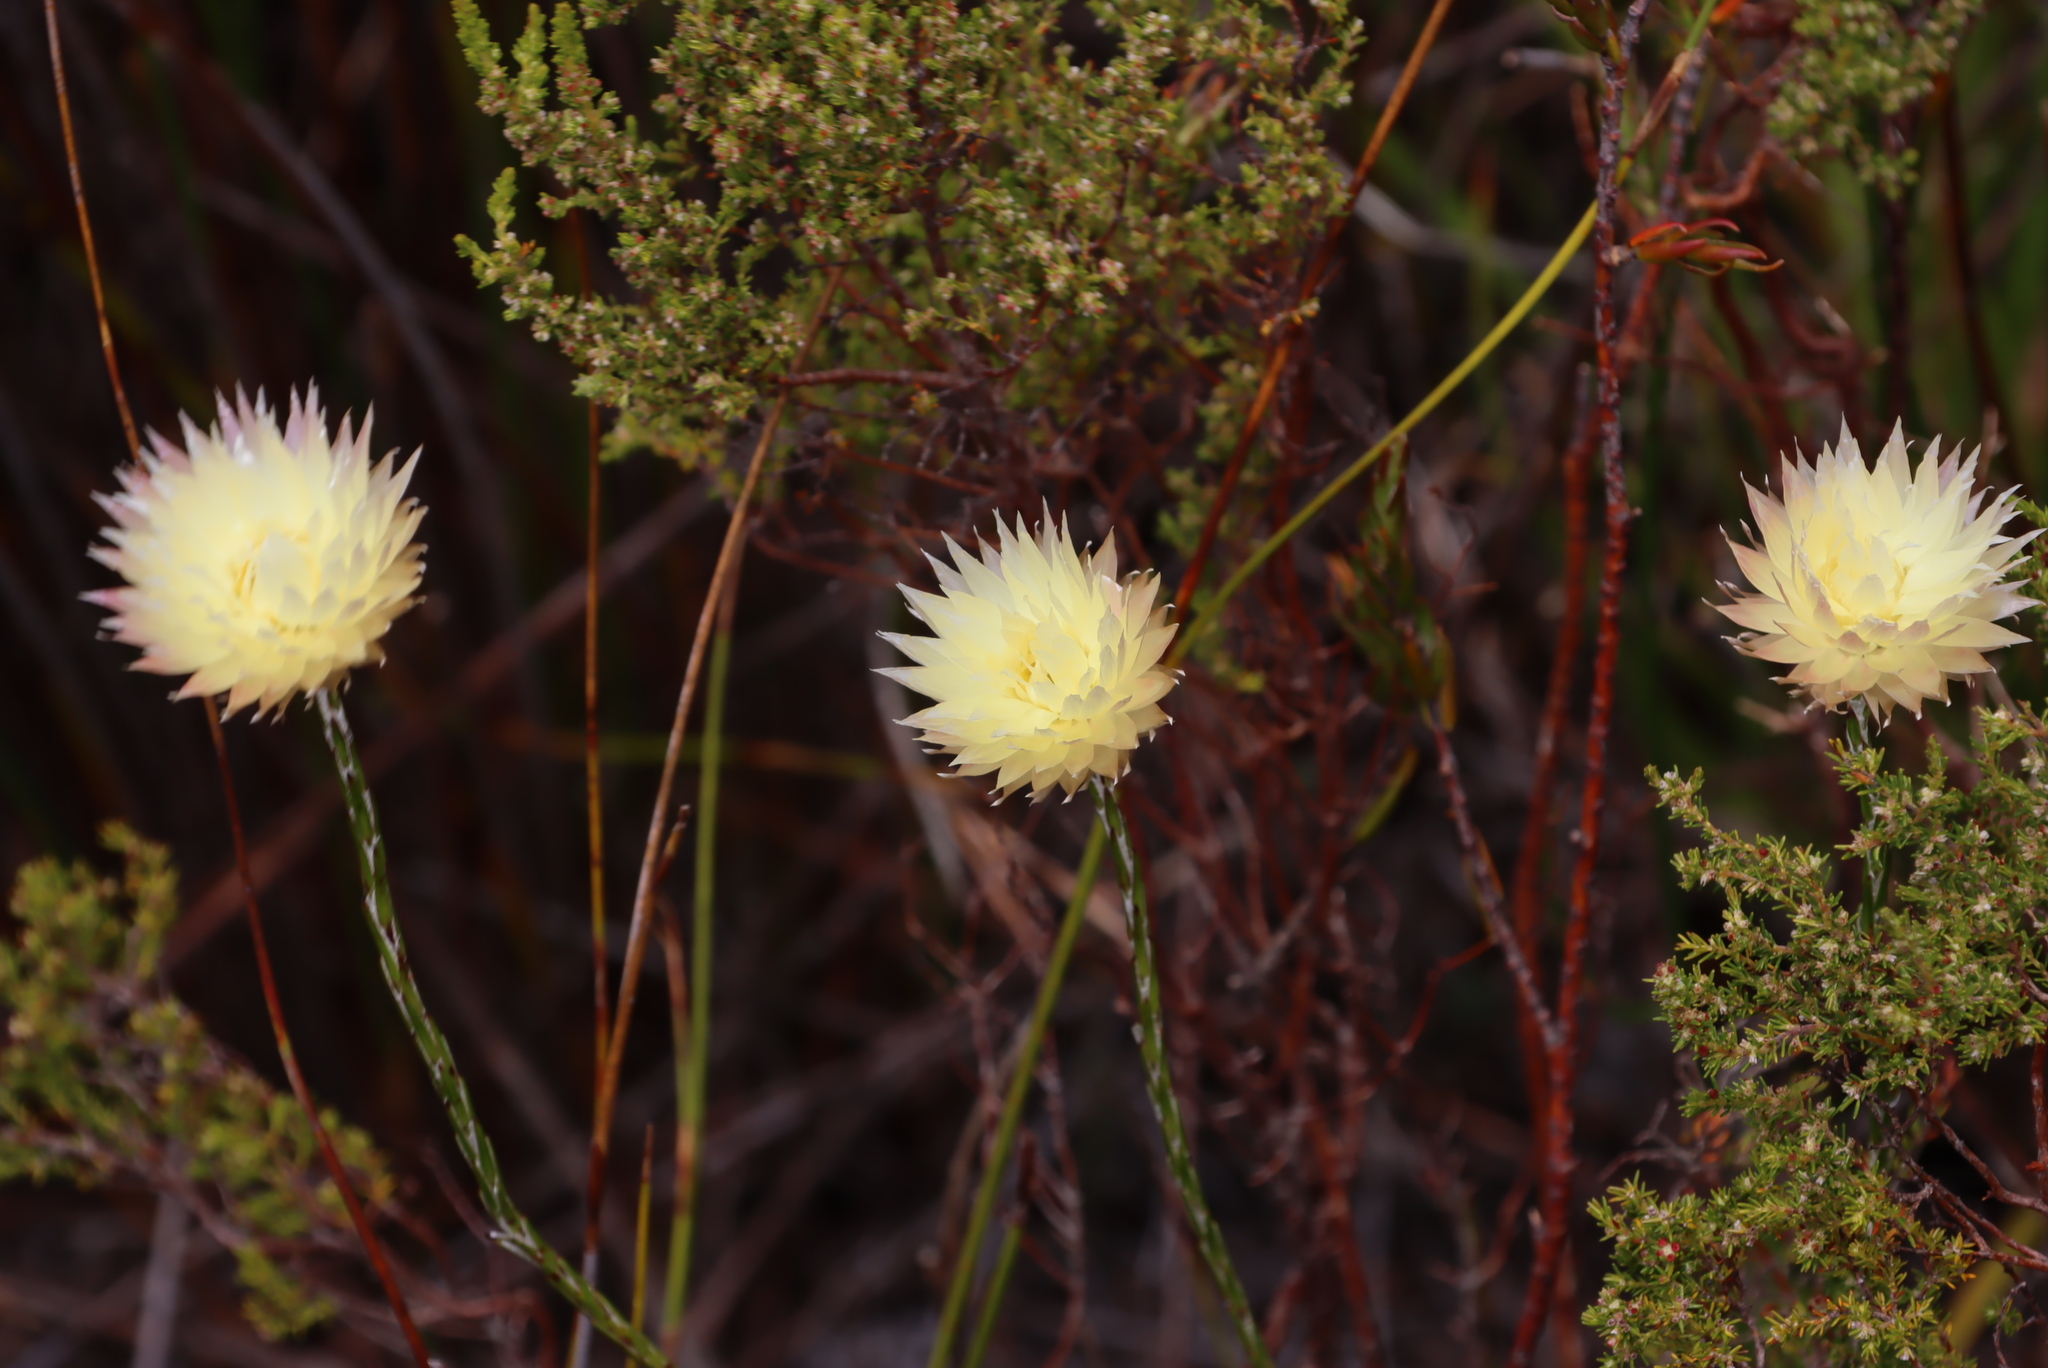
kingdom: Plantae
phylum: Tracheophyta
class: Magnoliopsida
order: Asterales
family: Asteraceae
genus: Edmondia
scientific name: Edmondia sesamoides
